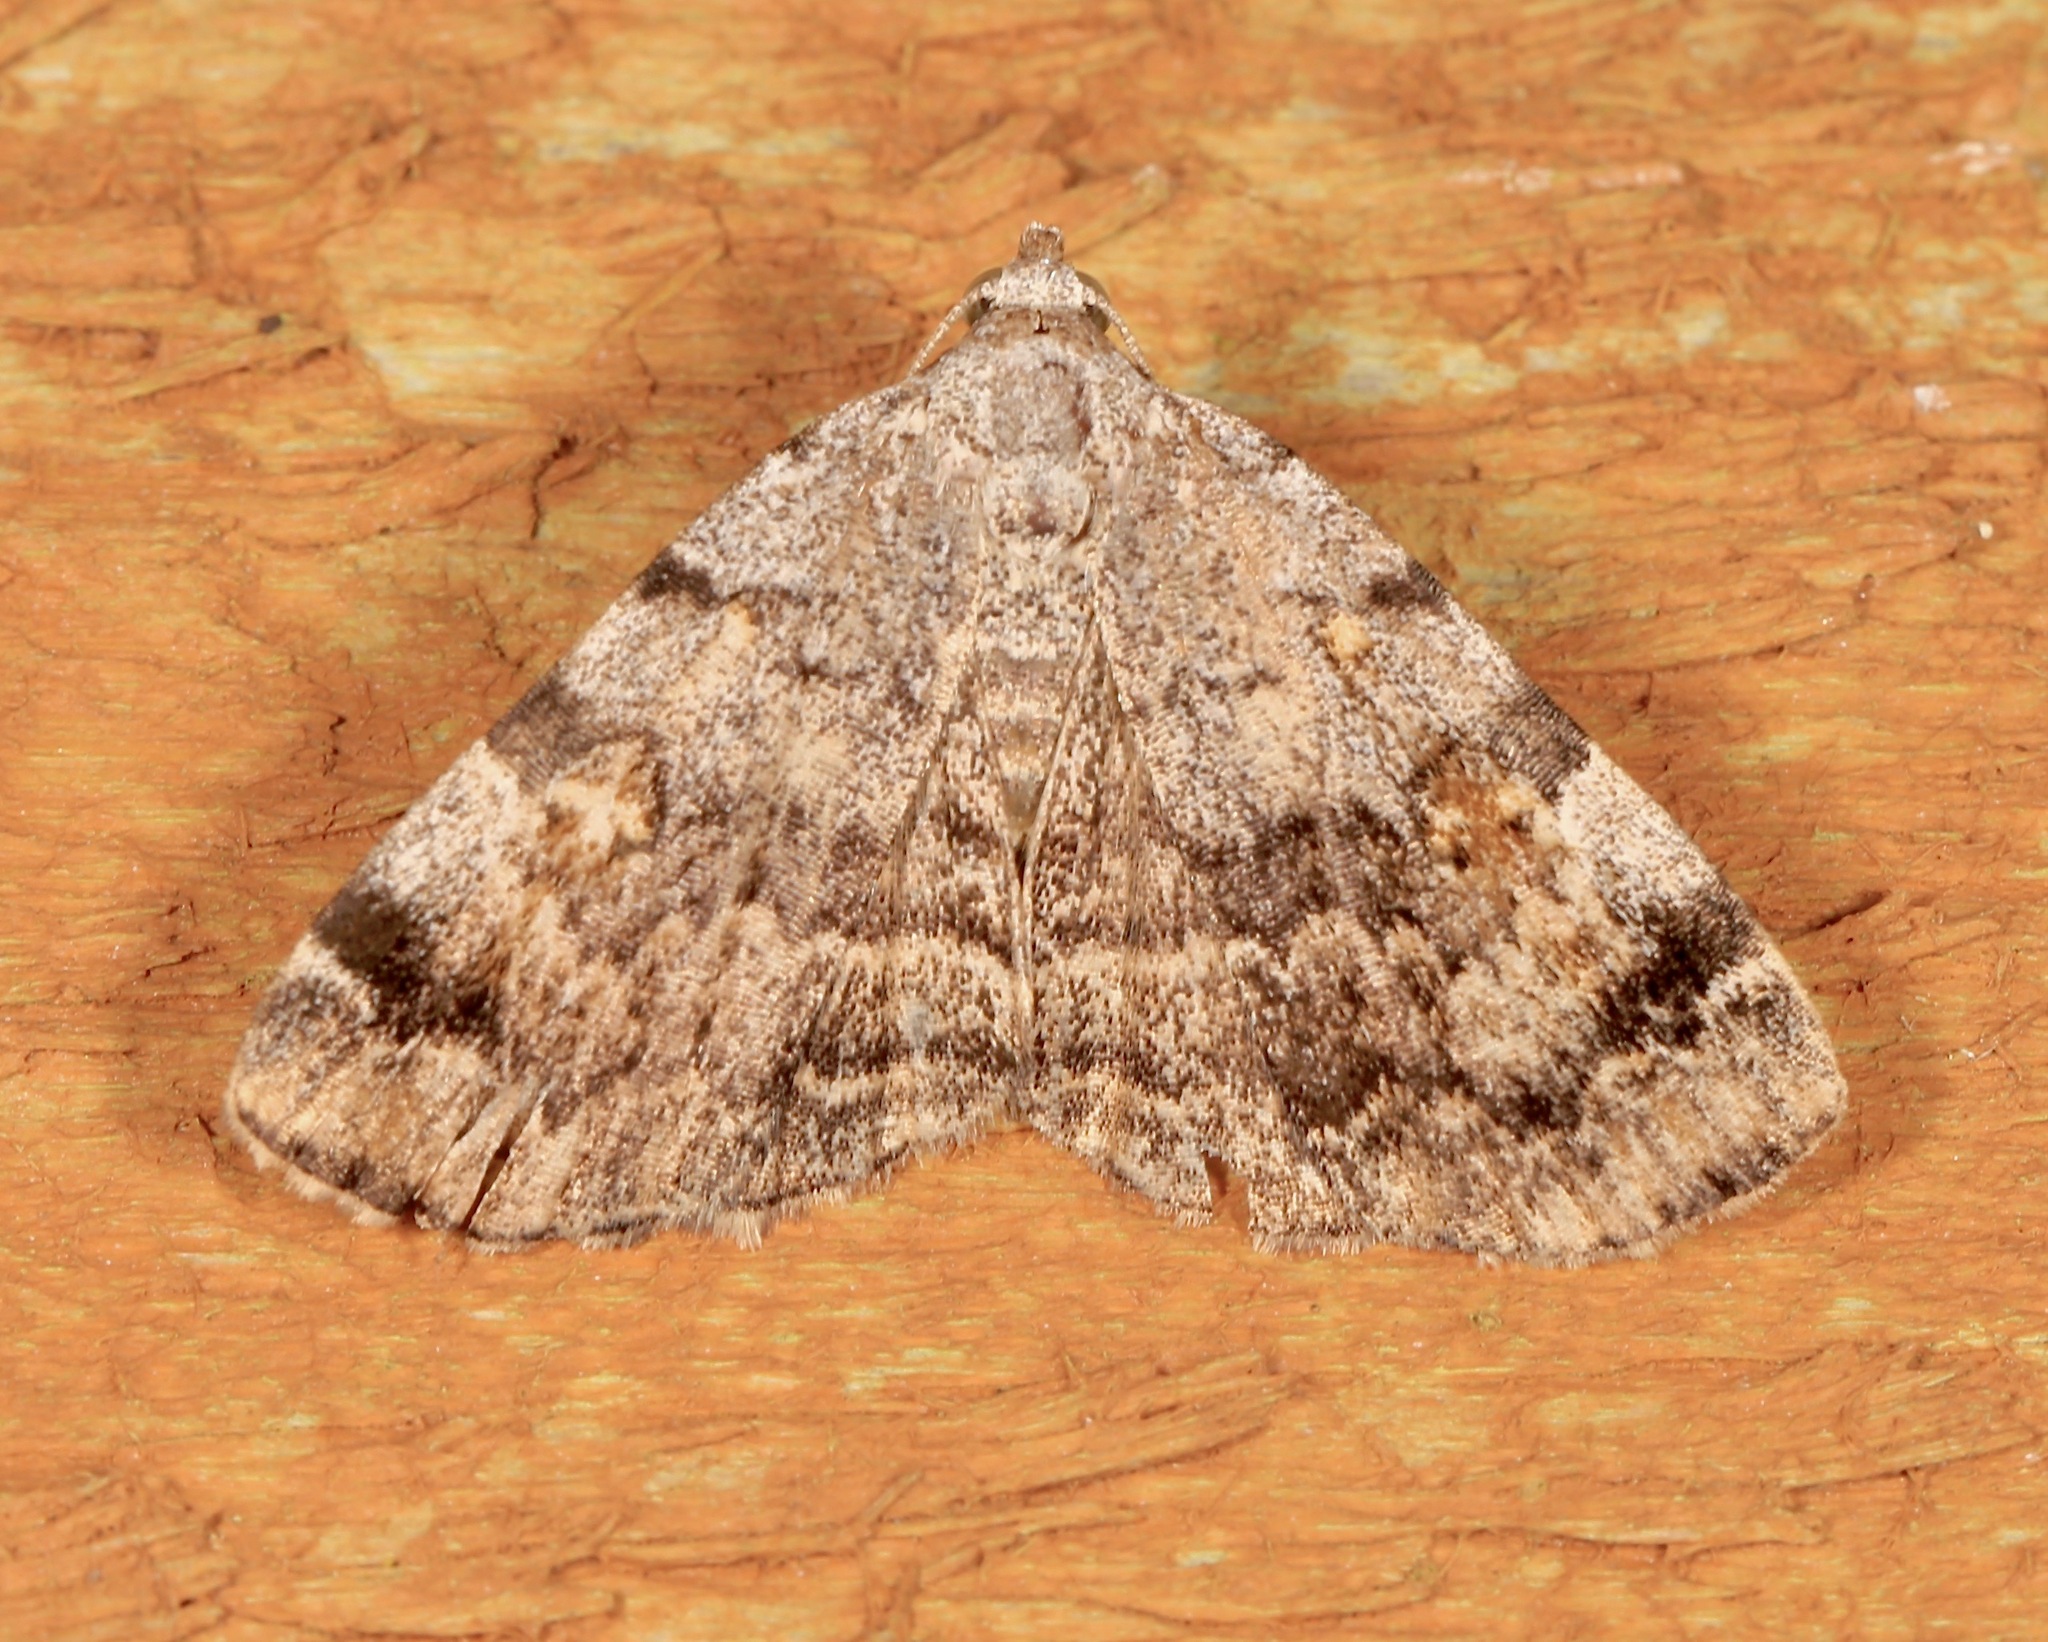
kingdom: Animalia
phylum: Arthropoda
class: Insecta
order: Lepidoptera
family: Erebidae
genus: Idia
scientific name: Idia americalis
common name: American idia moth
